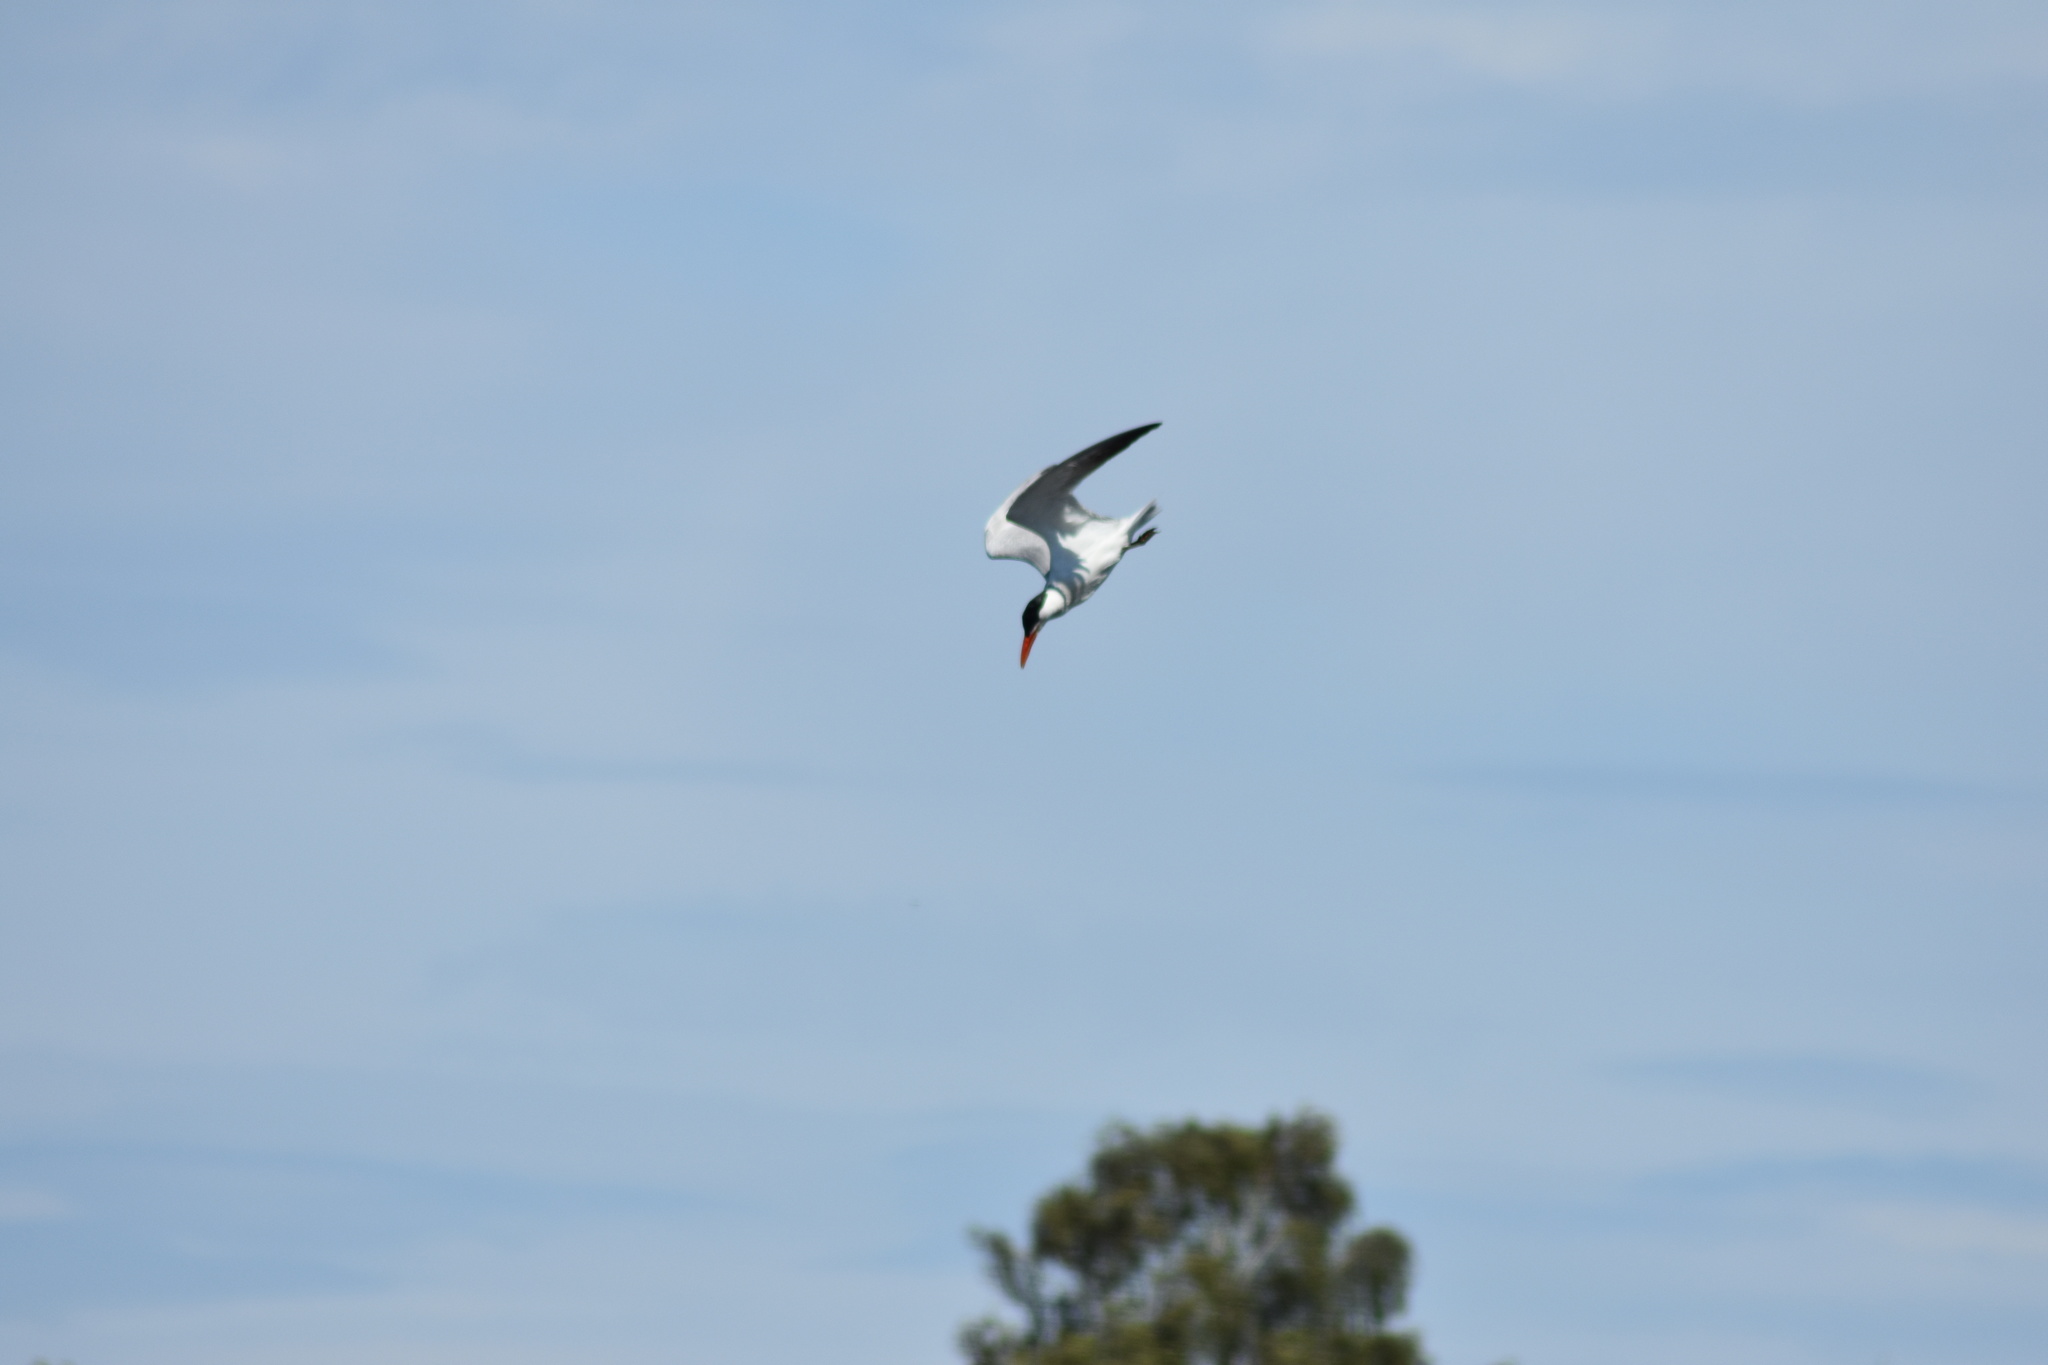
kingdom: Animalia
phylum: Chordata
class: Aves
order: Charadriiformes
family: Laridae
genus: Hydroprogne
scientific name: Hydroprogne caspia
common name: Caspian tern
